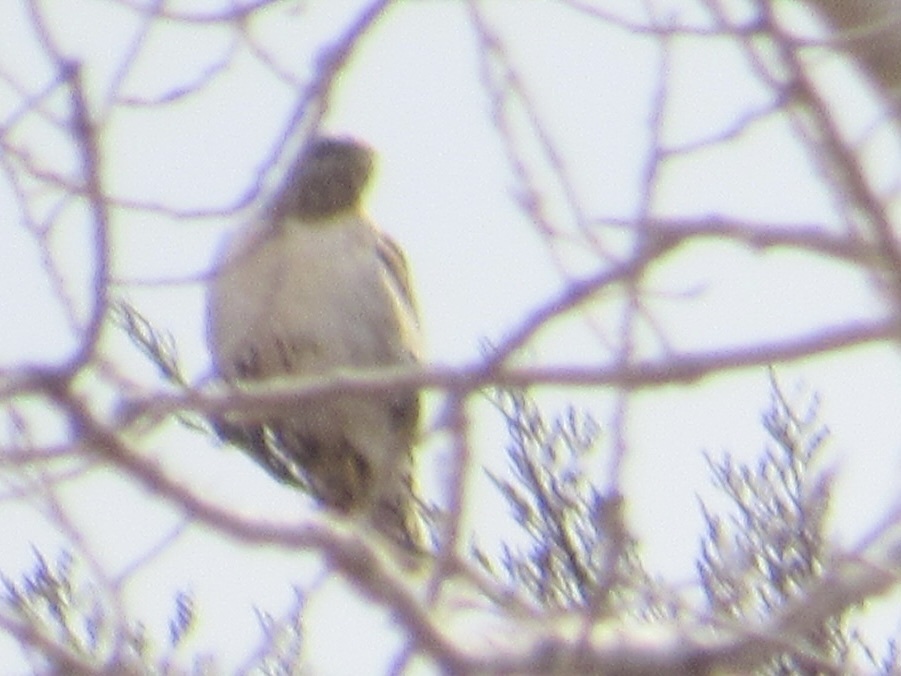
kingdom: Animalia
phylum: Chordata
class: Aves
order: Accipitriformes
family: Accipitridae
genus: Buteo
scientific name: Buteo jamaicensis
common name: Red-tailed hawk
